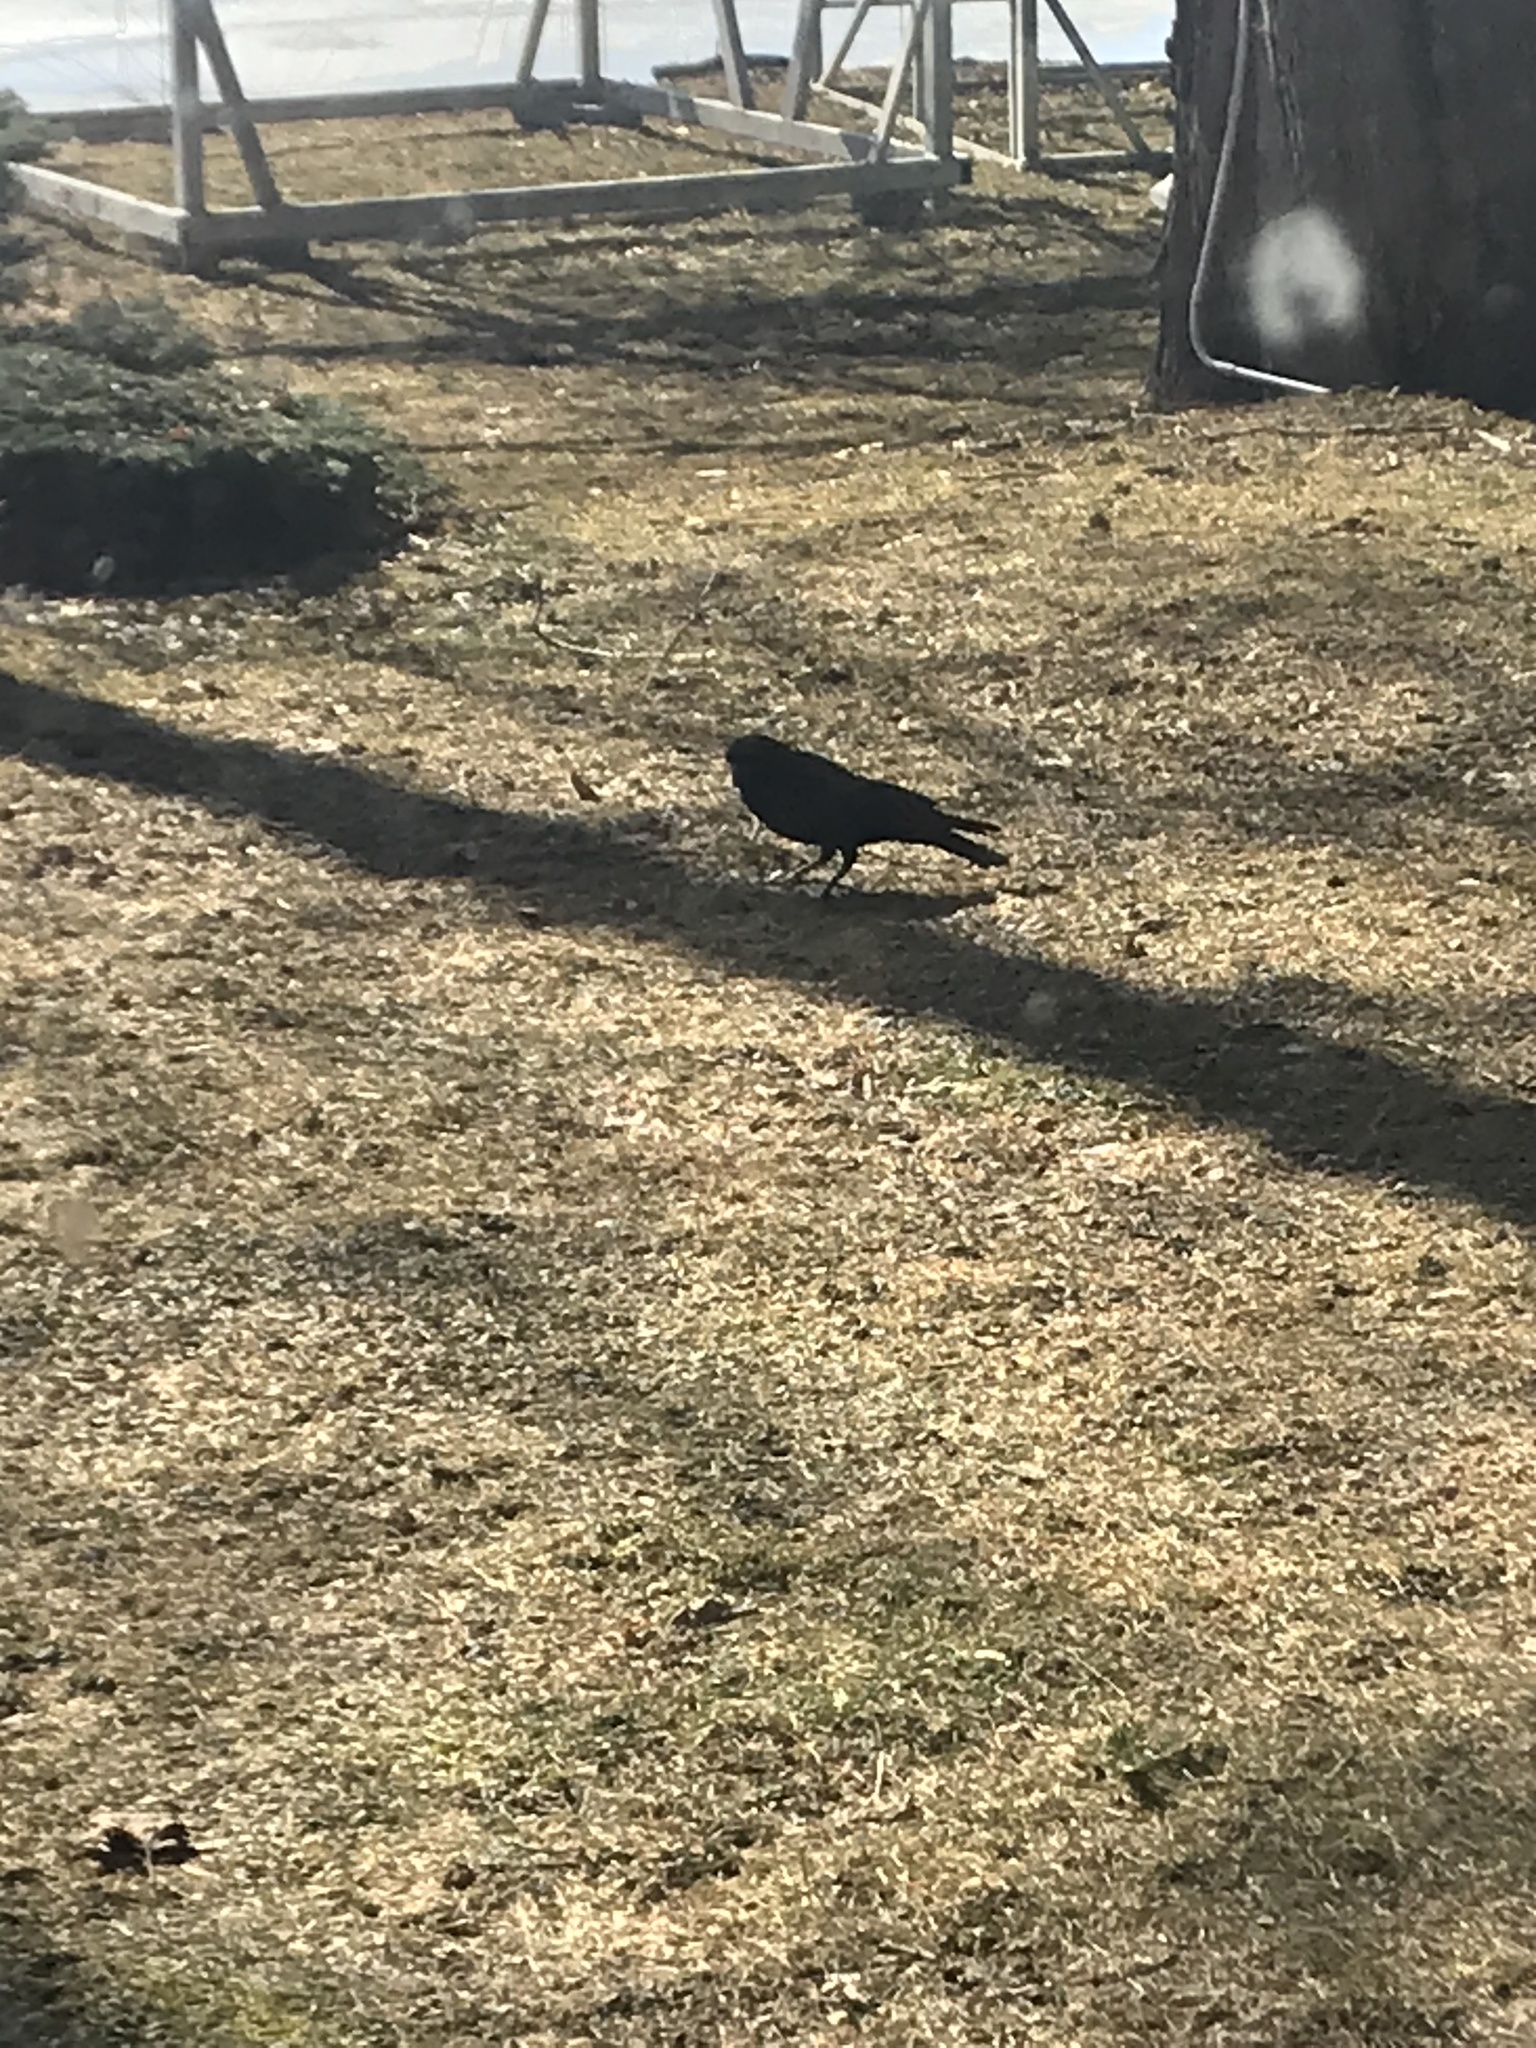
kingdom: Animalia
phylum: Chordata
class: Aves
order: Passeriformes
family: Corvidae
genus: Corvus
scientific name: Corvus brachyrhynchos
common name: American crow
